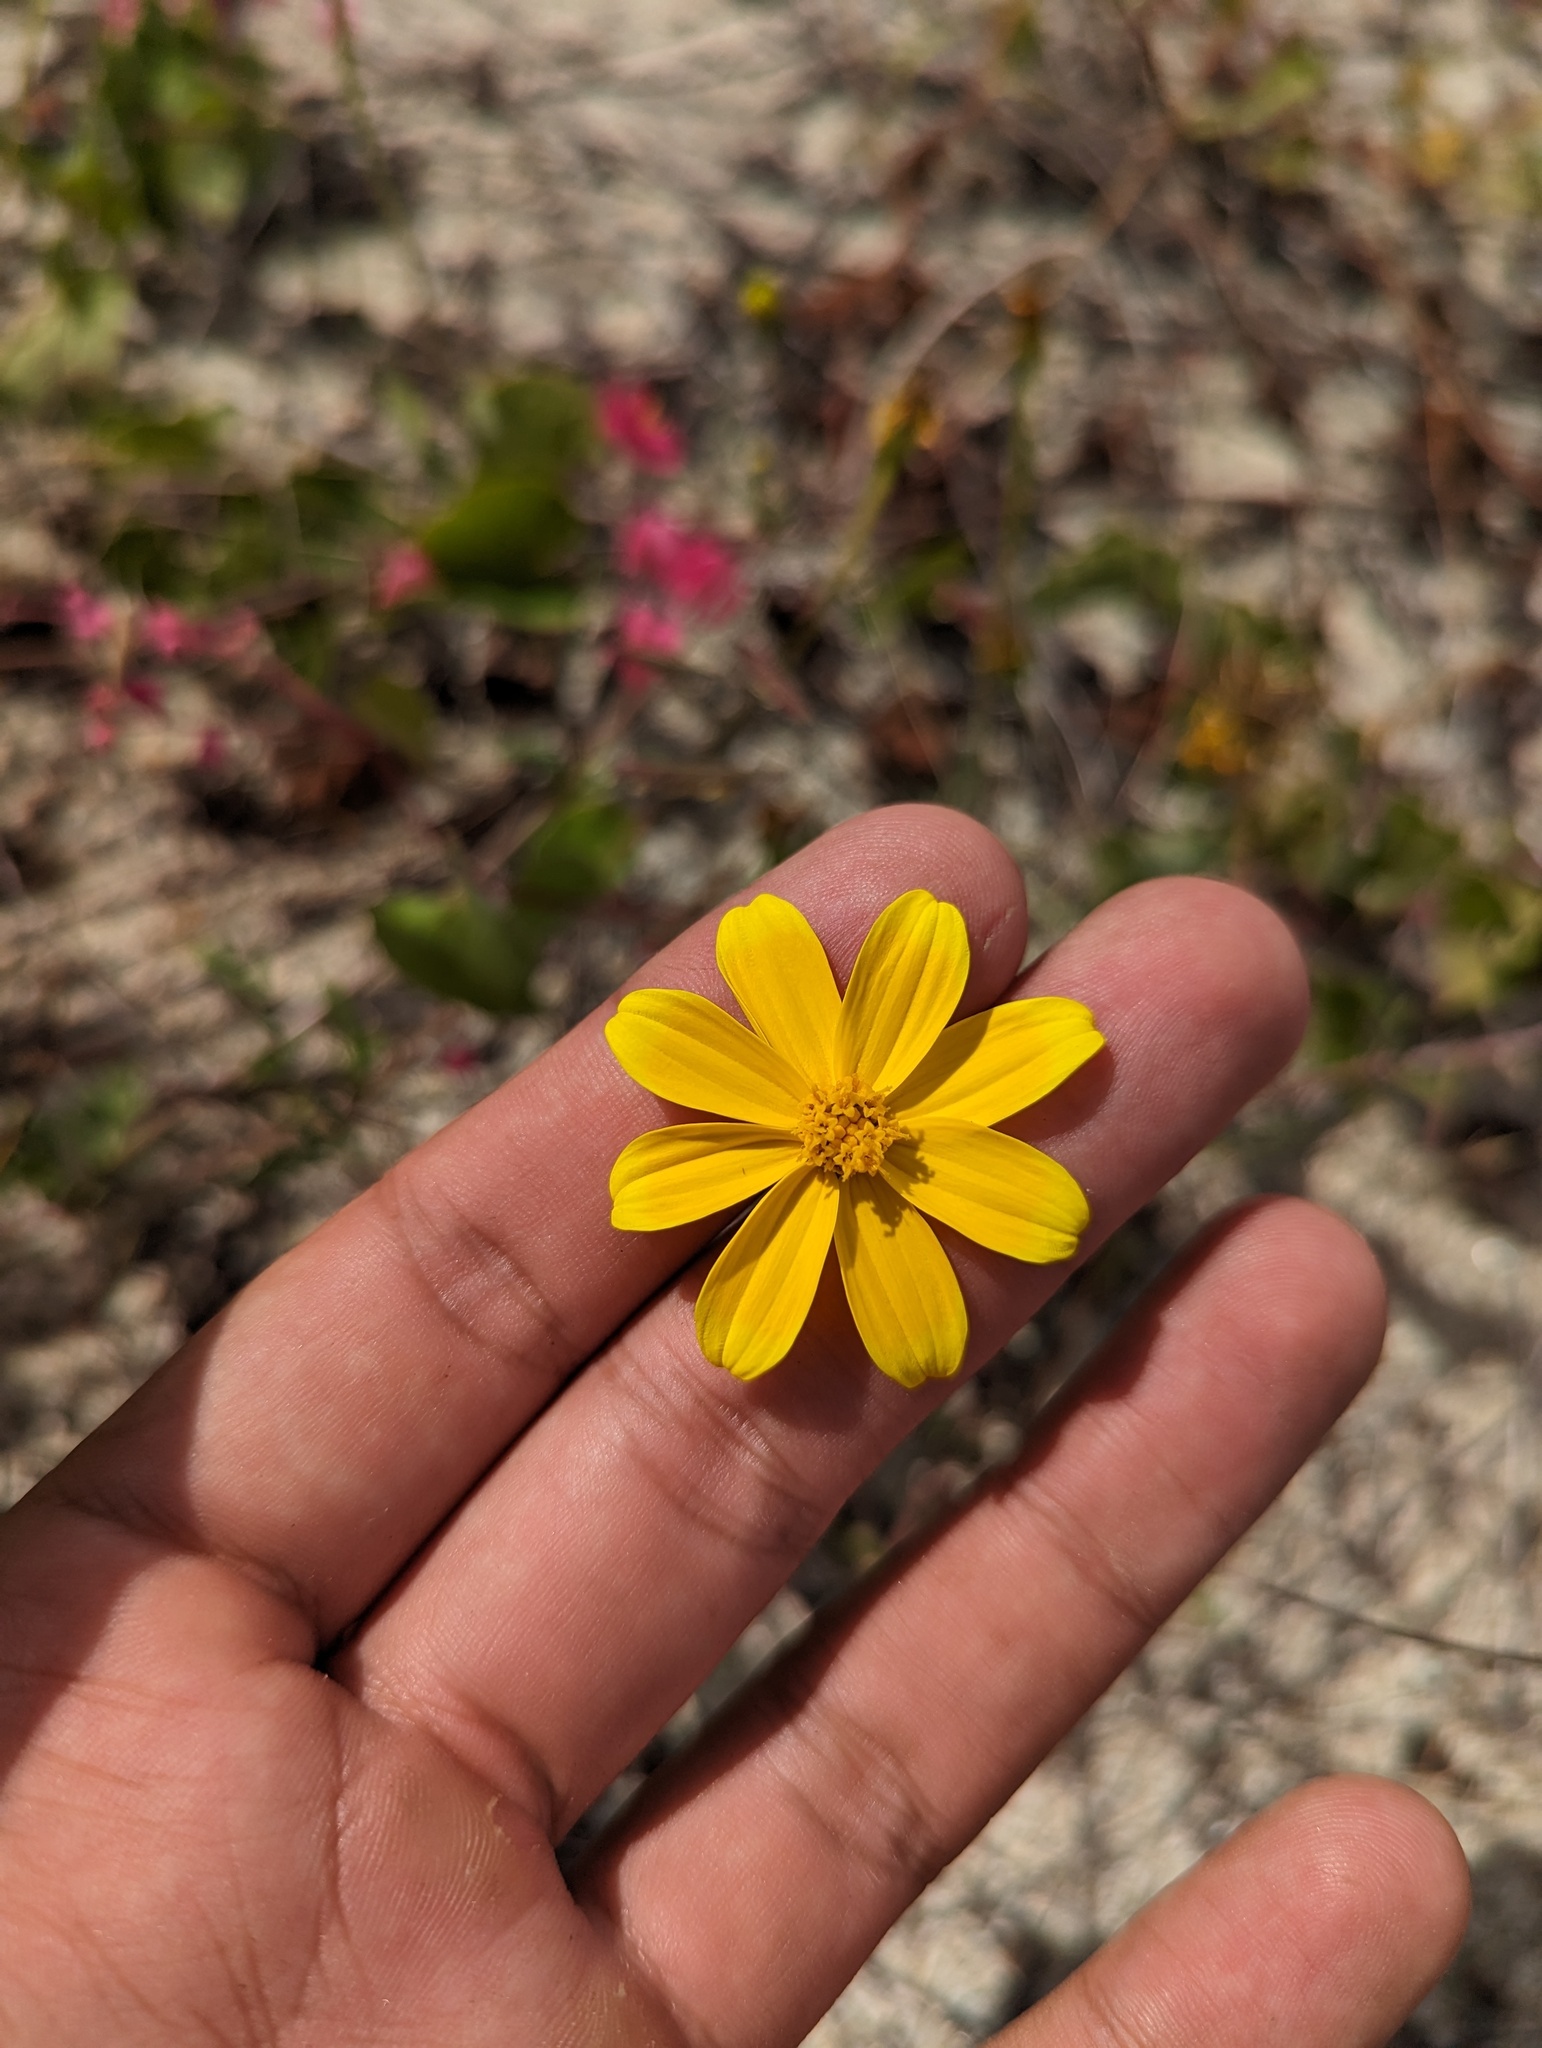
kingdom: Plantae
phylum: Tracheophyta
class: Magnoliopsida
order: Asterales
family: Asteraceae
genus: Bidens
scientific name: Bidens cabopulmensis
